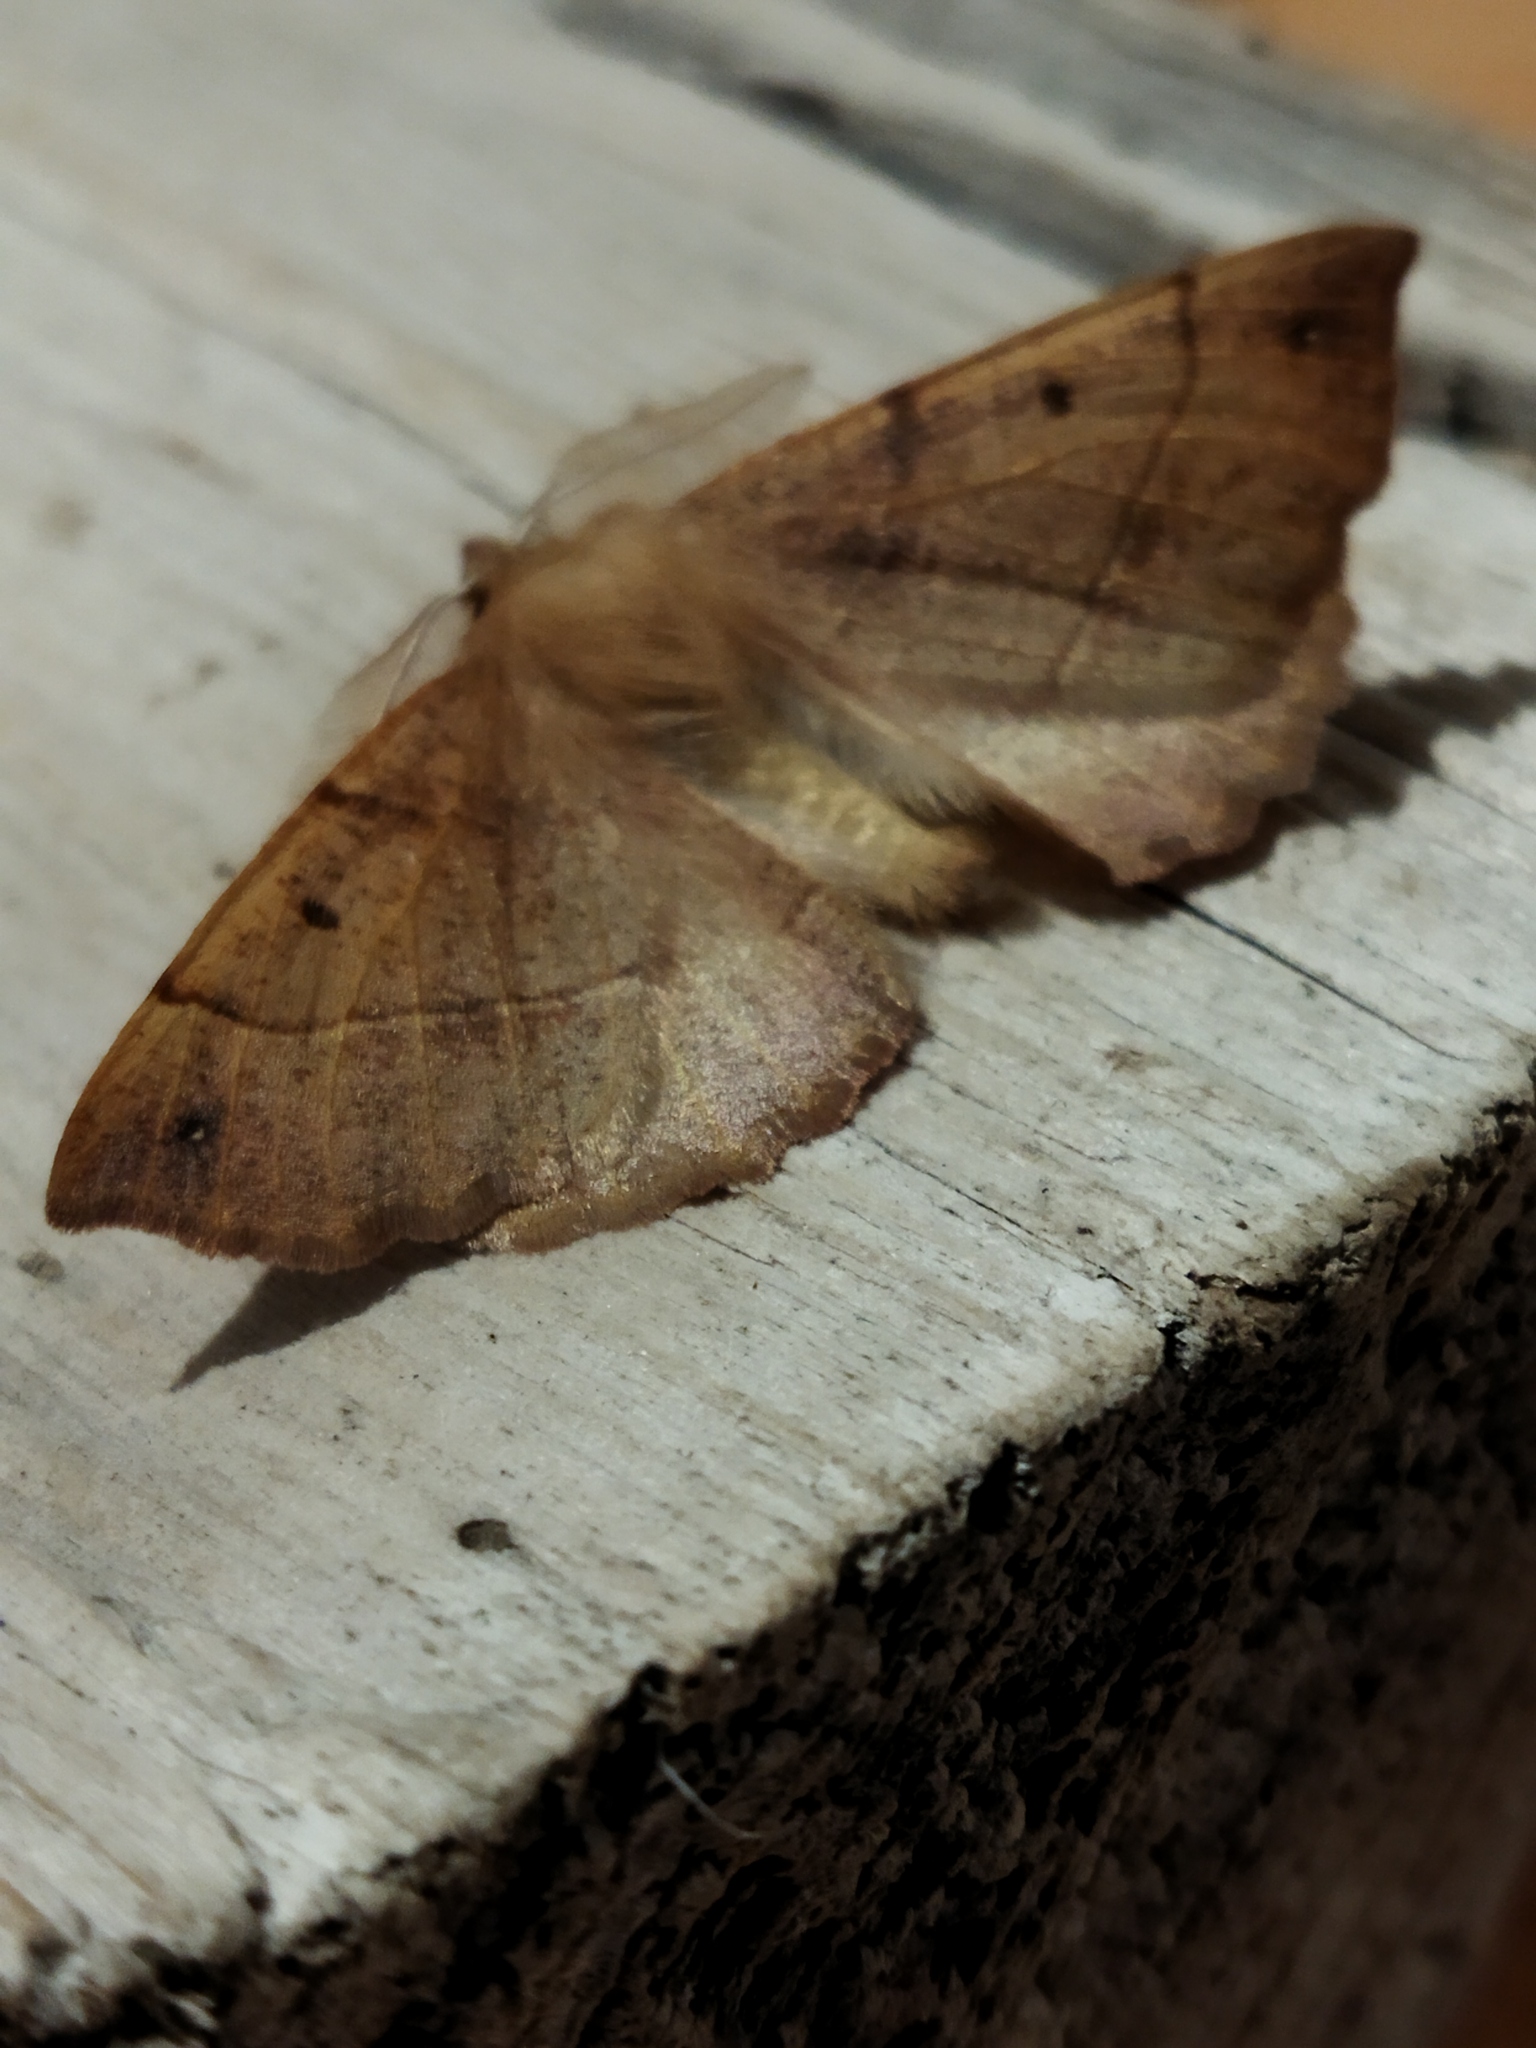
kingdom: Animalia
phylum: Arthropoda
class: Insecta
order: Lepidoptera
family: Geometridae
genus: Colotois
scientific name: Colotois pennaria
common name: Feathered thorn
